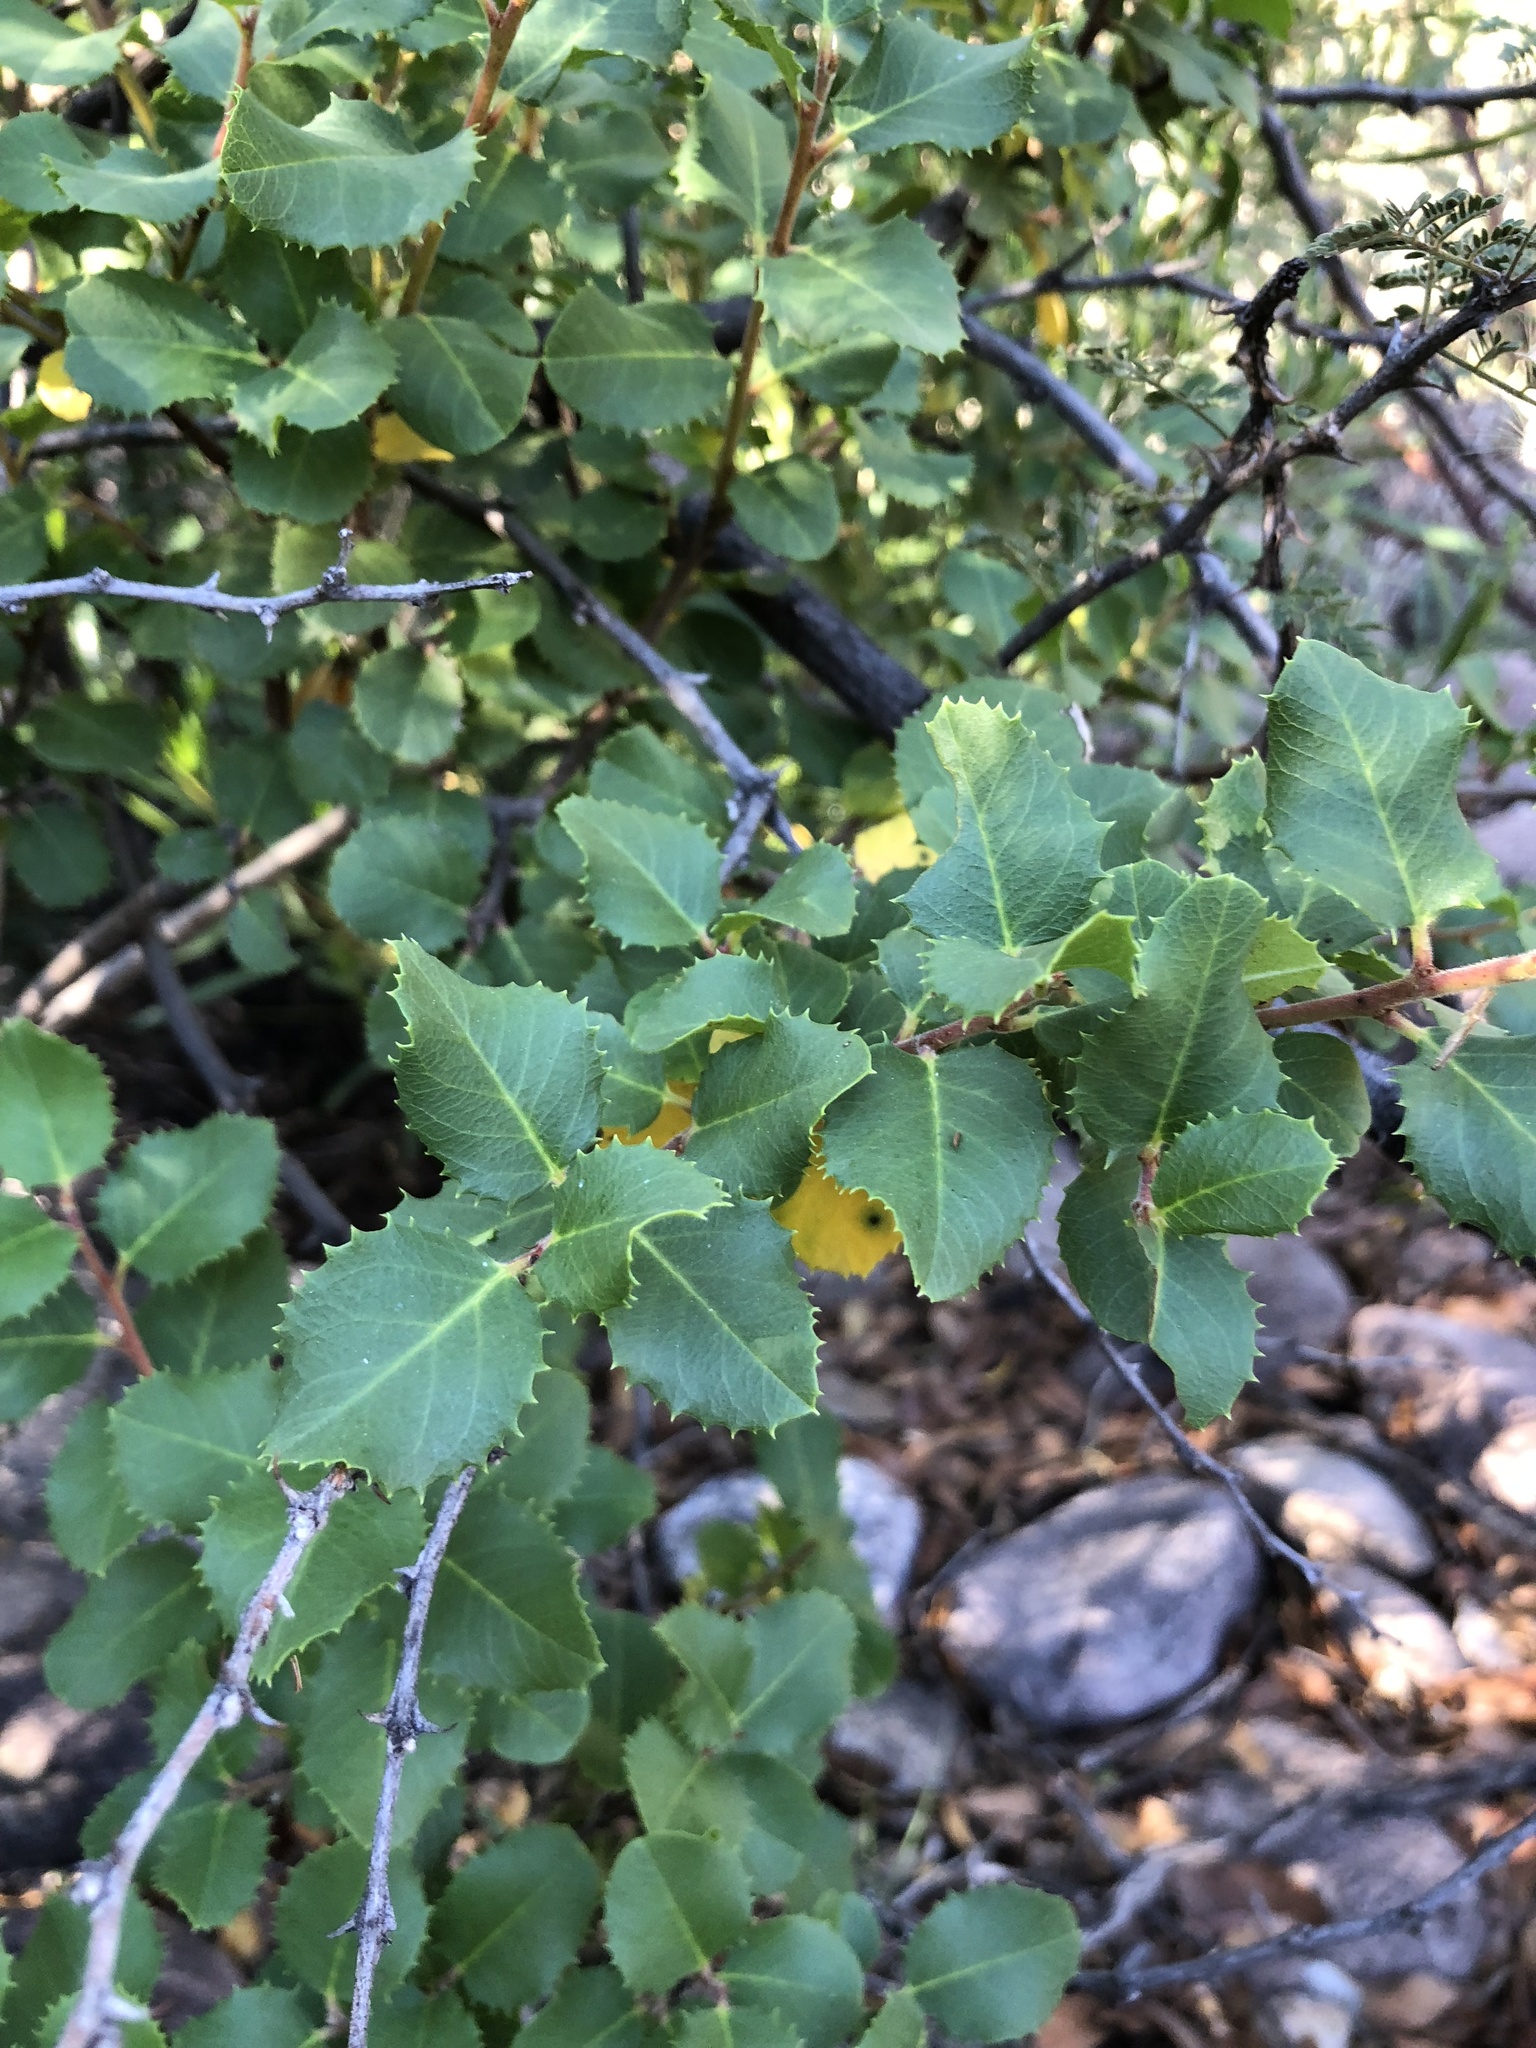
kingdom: Plantae
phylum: Tracheophyta
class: Magnoliopsida
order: Rosales
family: Rhamnaceae
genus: Endotropis
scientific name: Endotropis crocea
